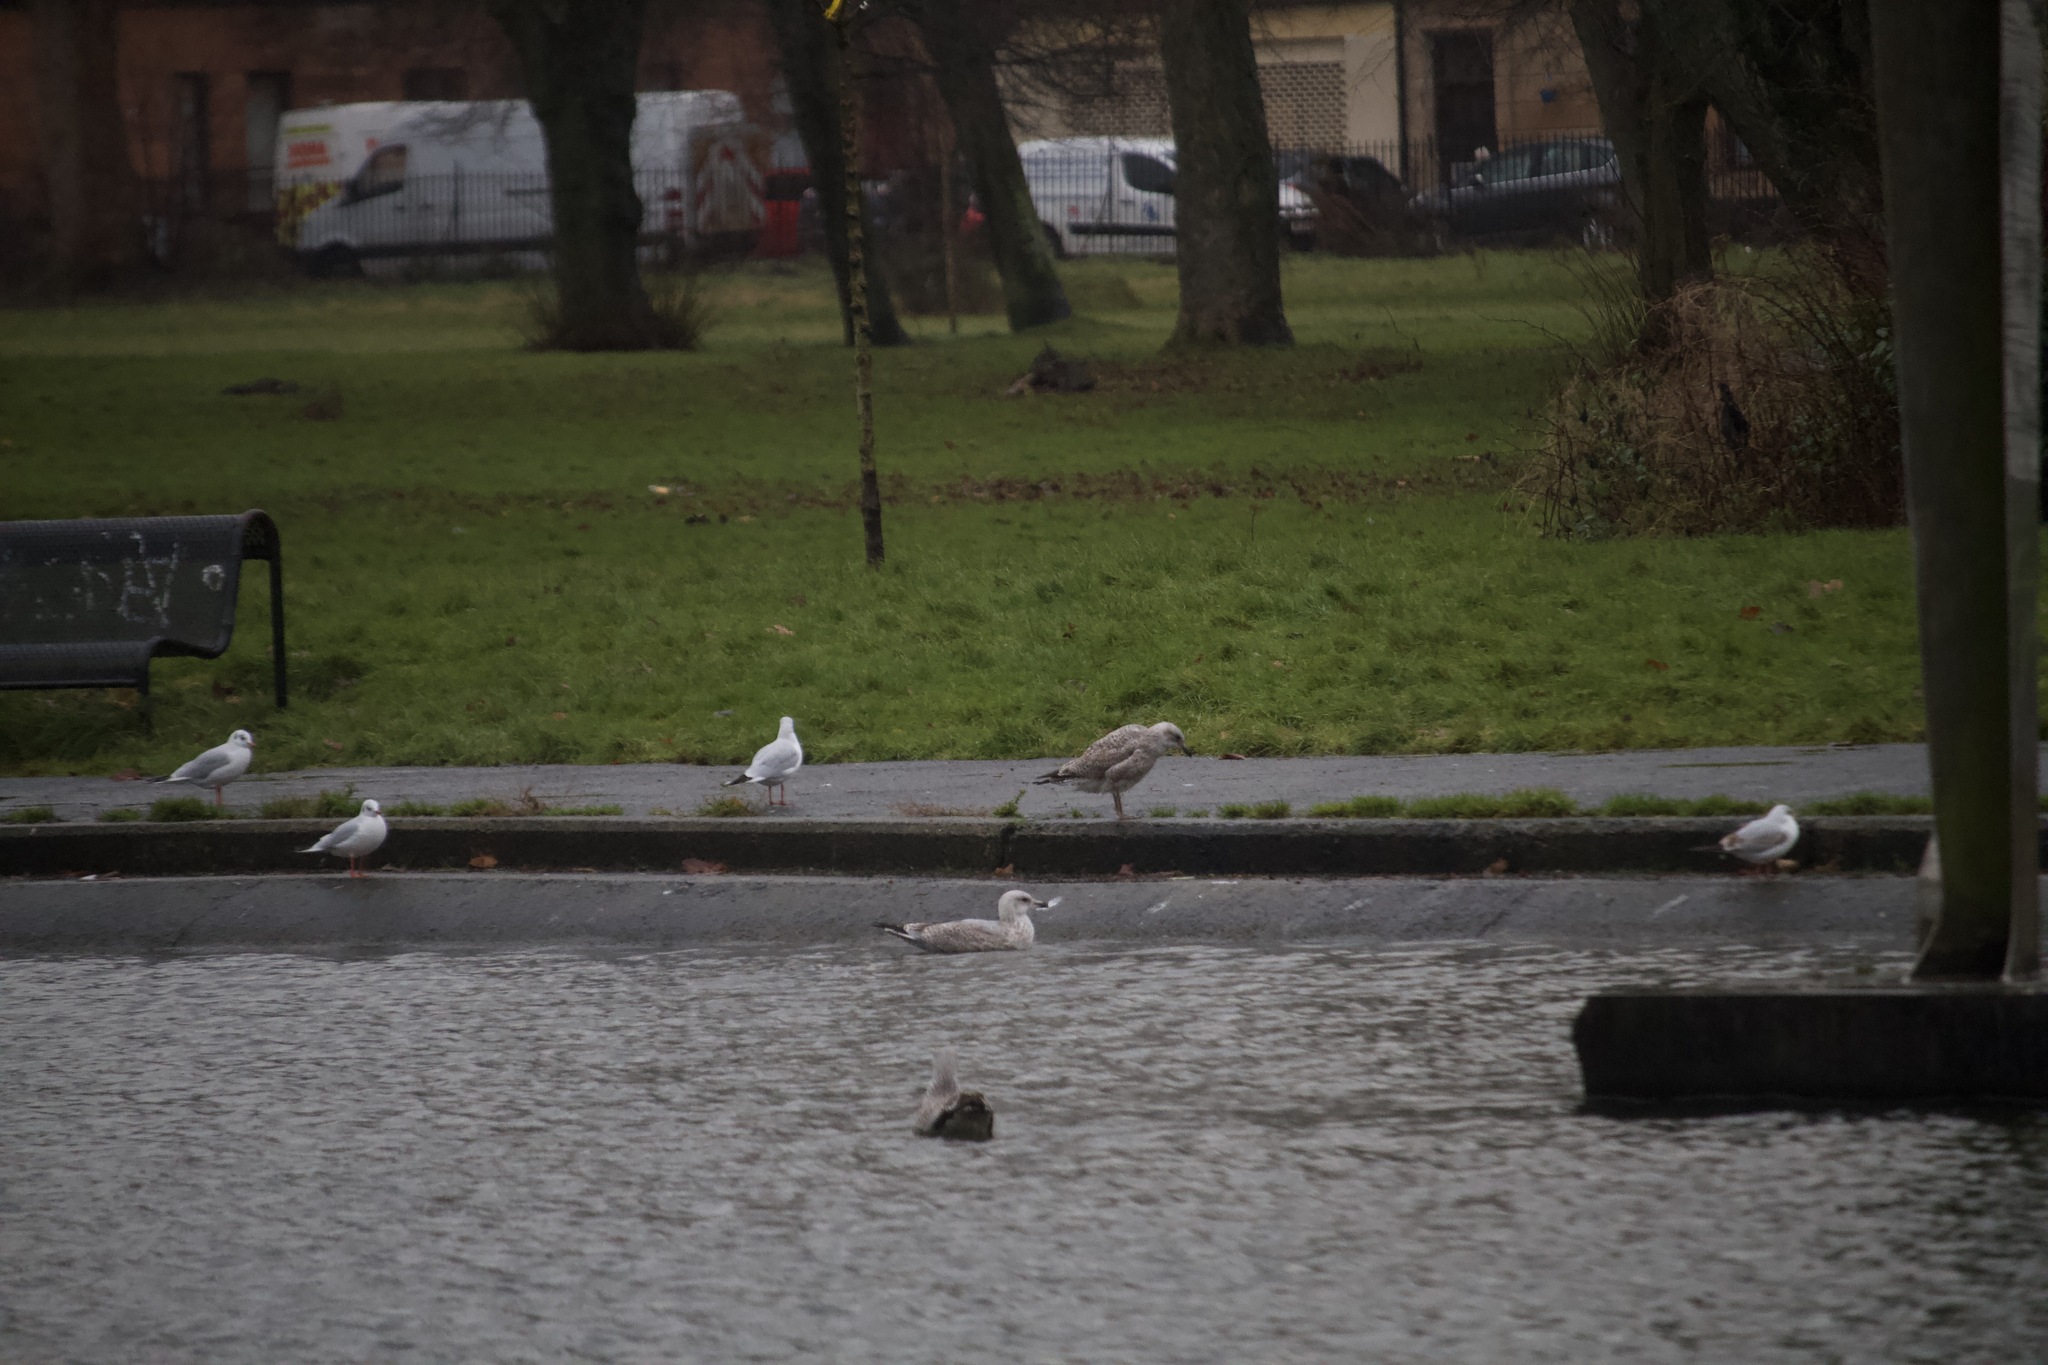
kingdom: Animalia
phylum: Chordata
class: Aves
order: Charadriiformes
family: Laridae
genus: Larus
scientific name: Larus argentatus
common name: Herring gull
